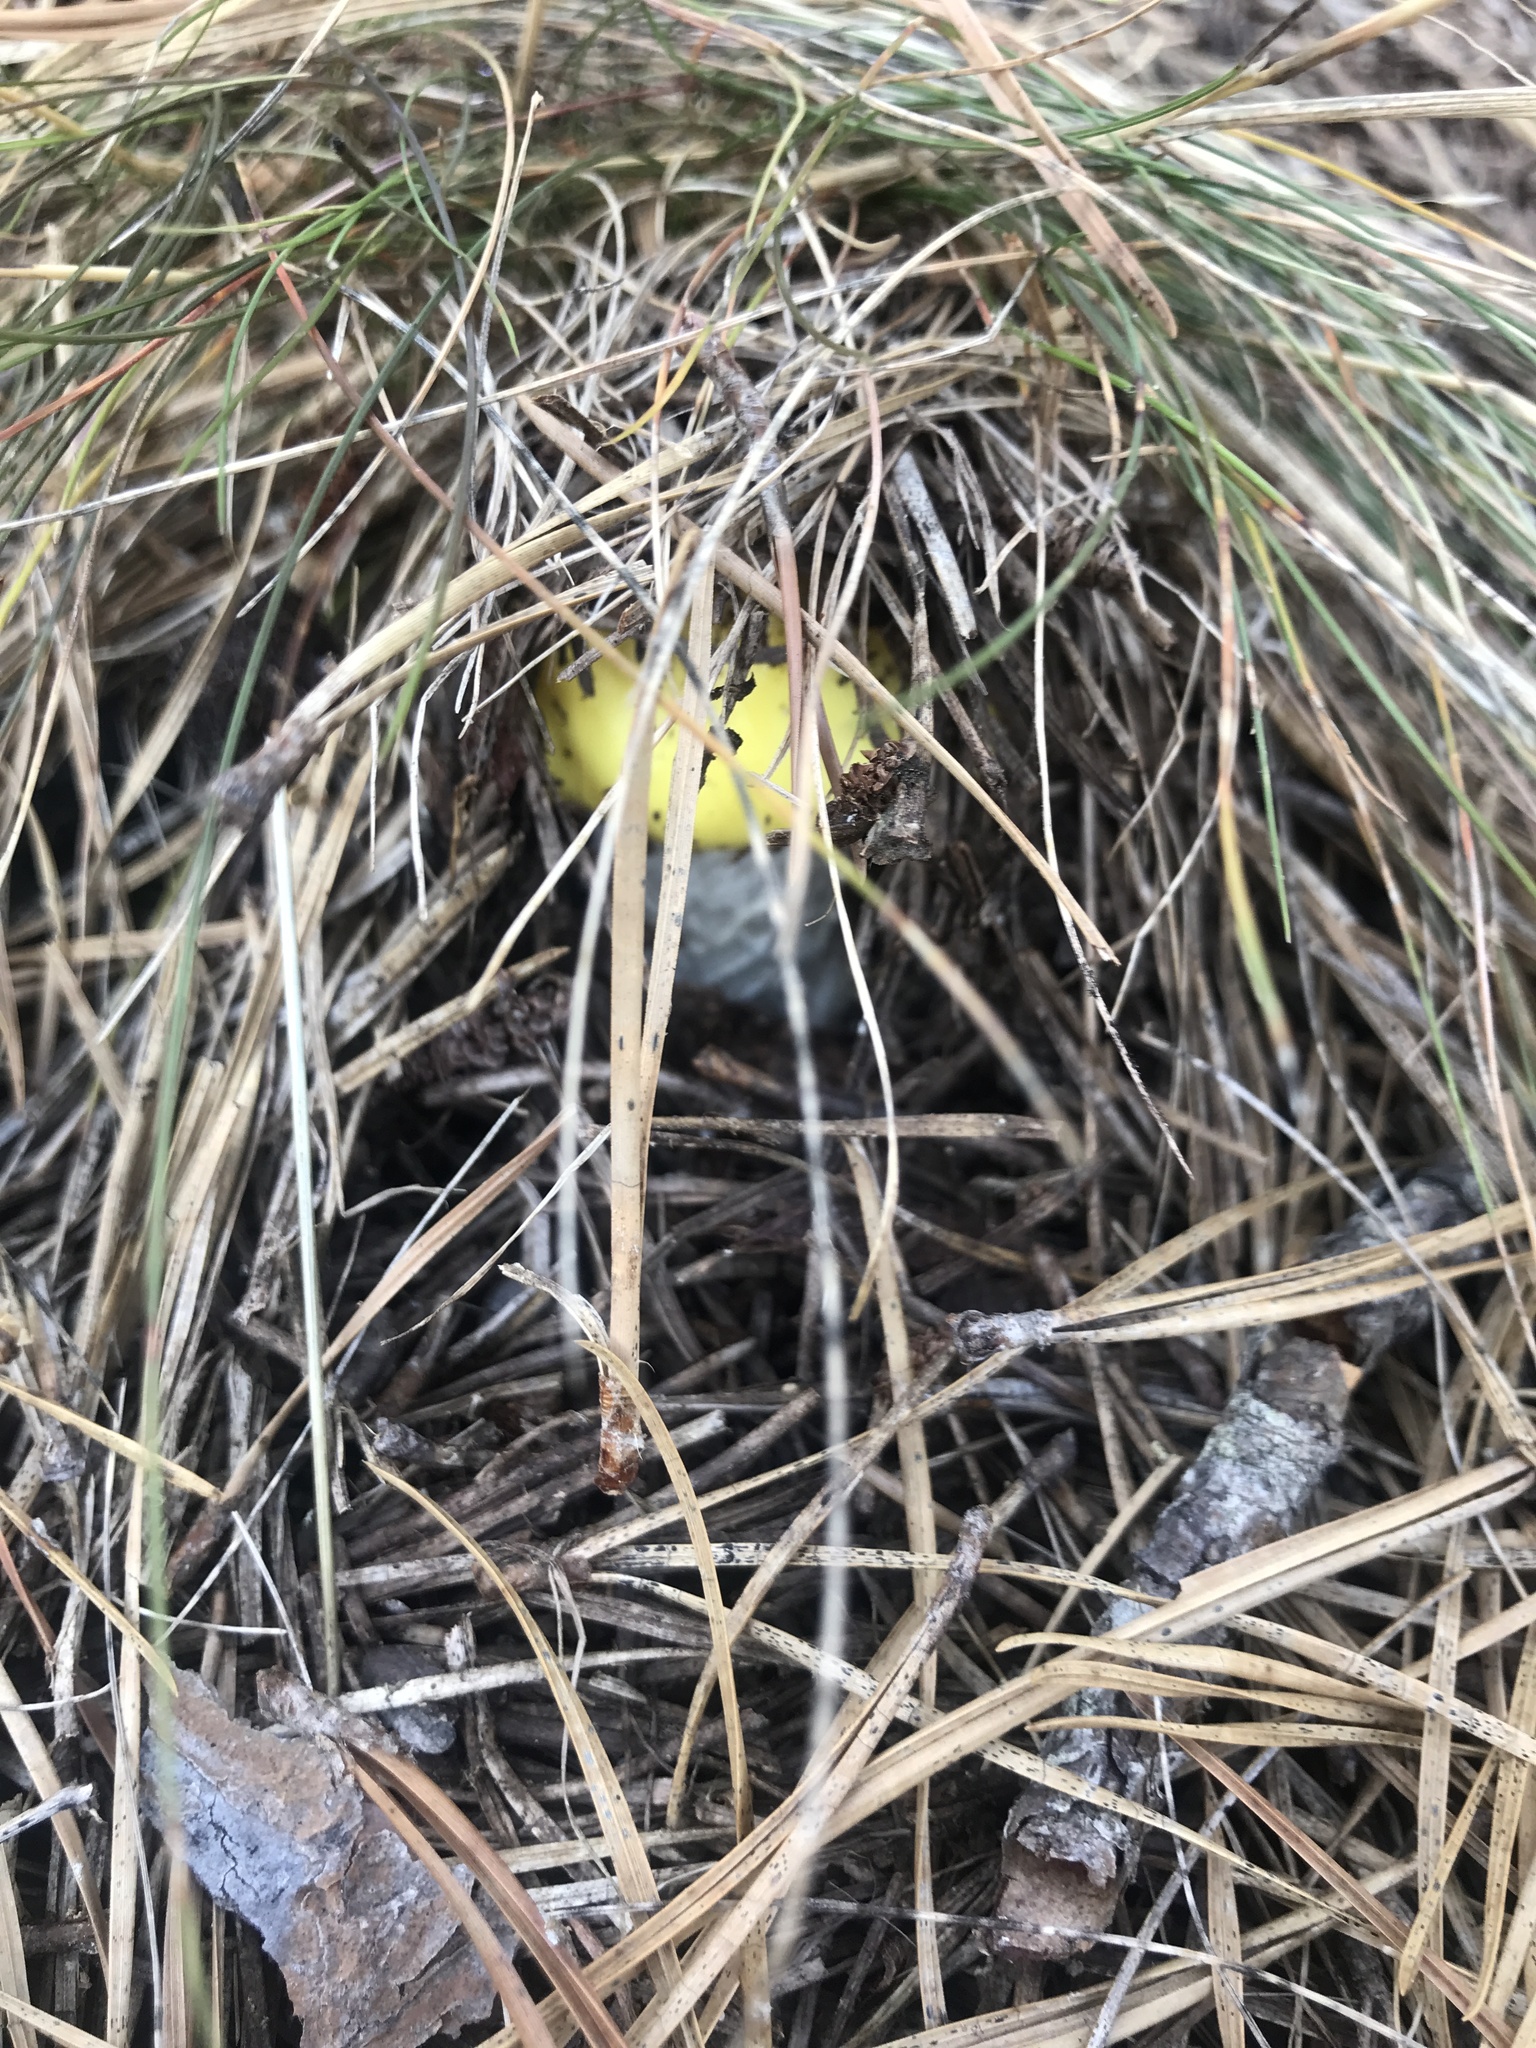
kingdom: Fungi
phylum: Basidiomycota
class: Agaricomycetes
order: Agaricales
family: Amanitaceae
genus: Amanita
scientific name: Amanita muscaria
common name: Fly agaric
